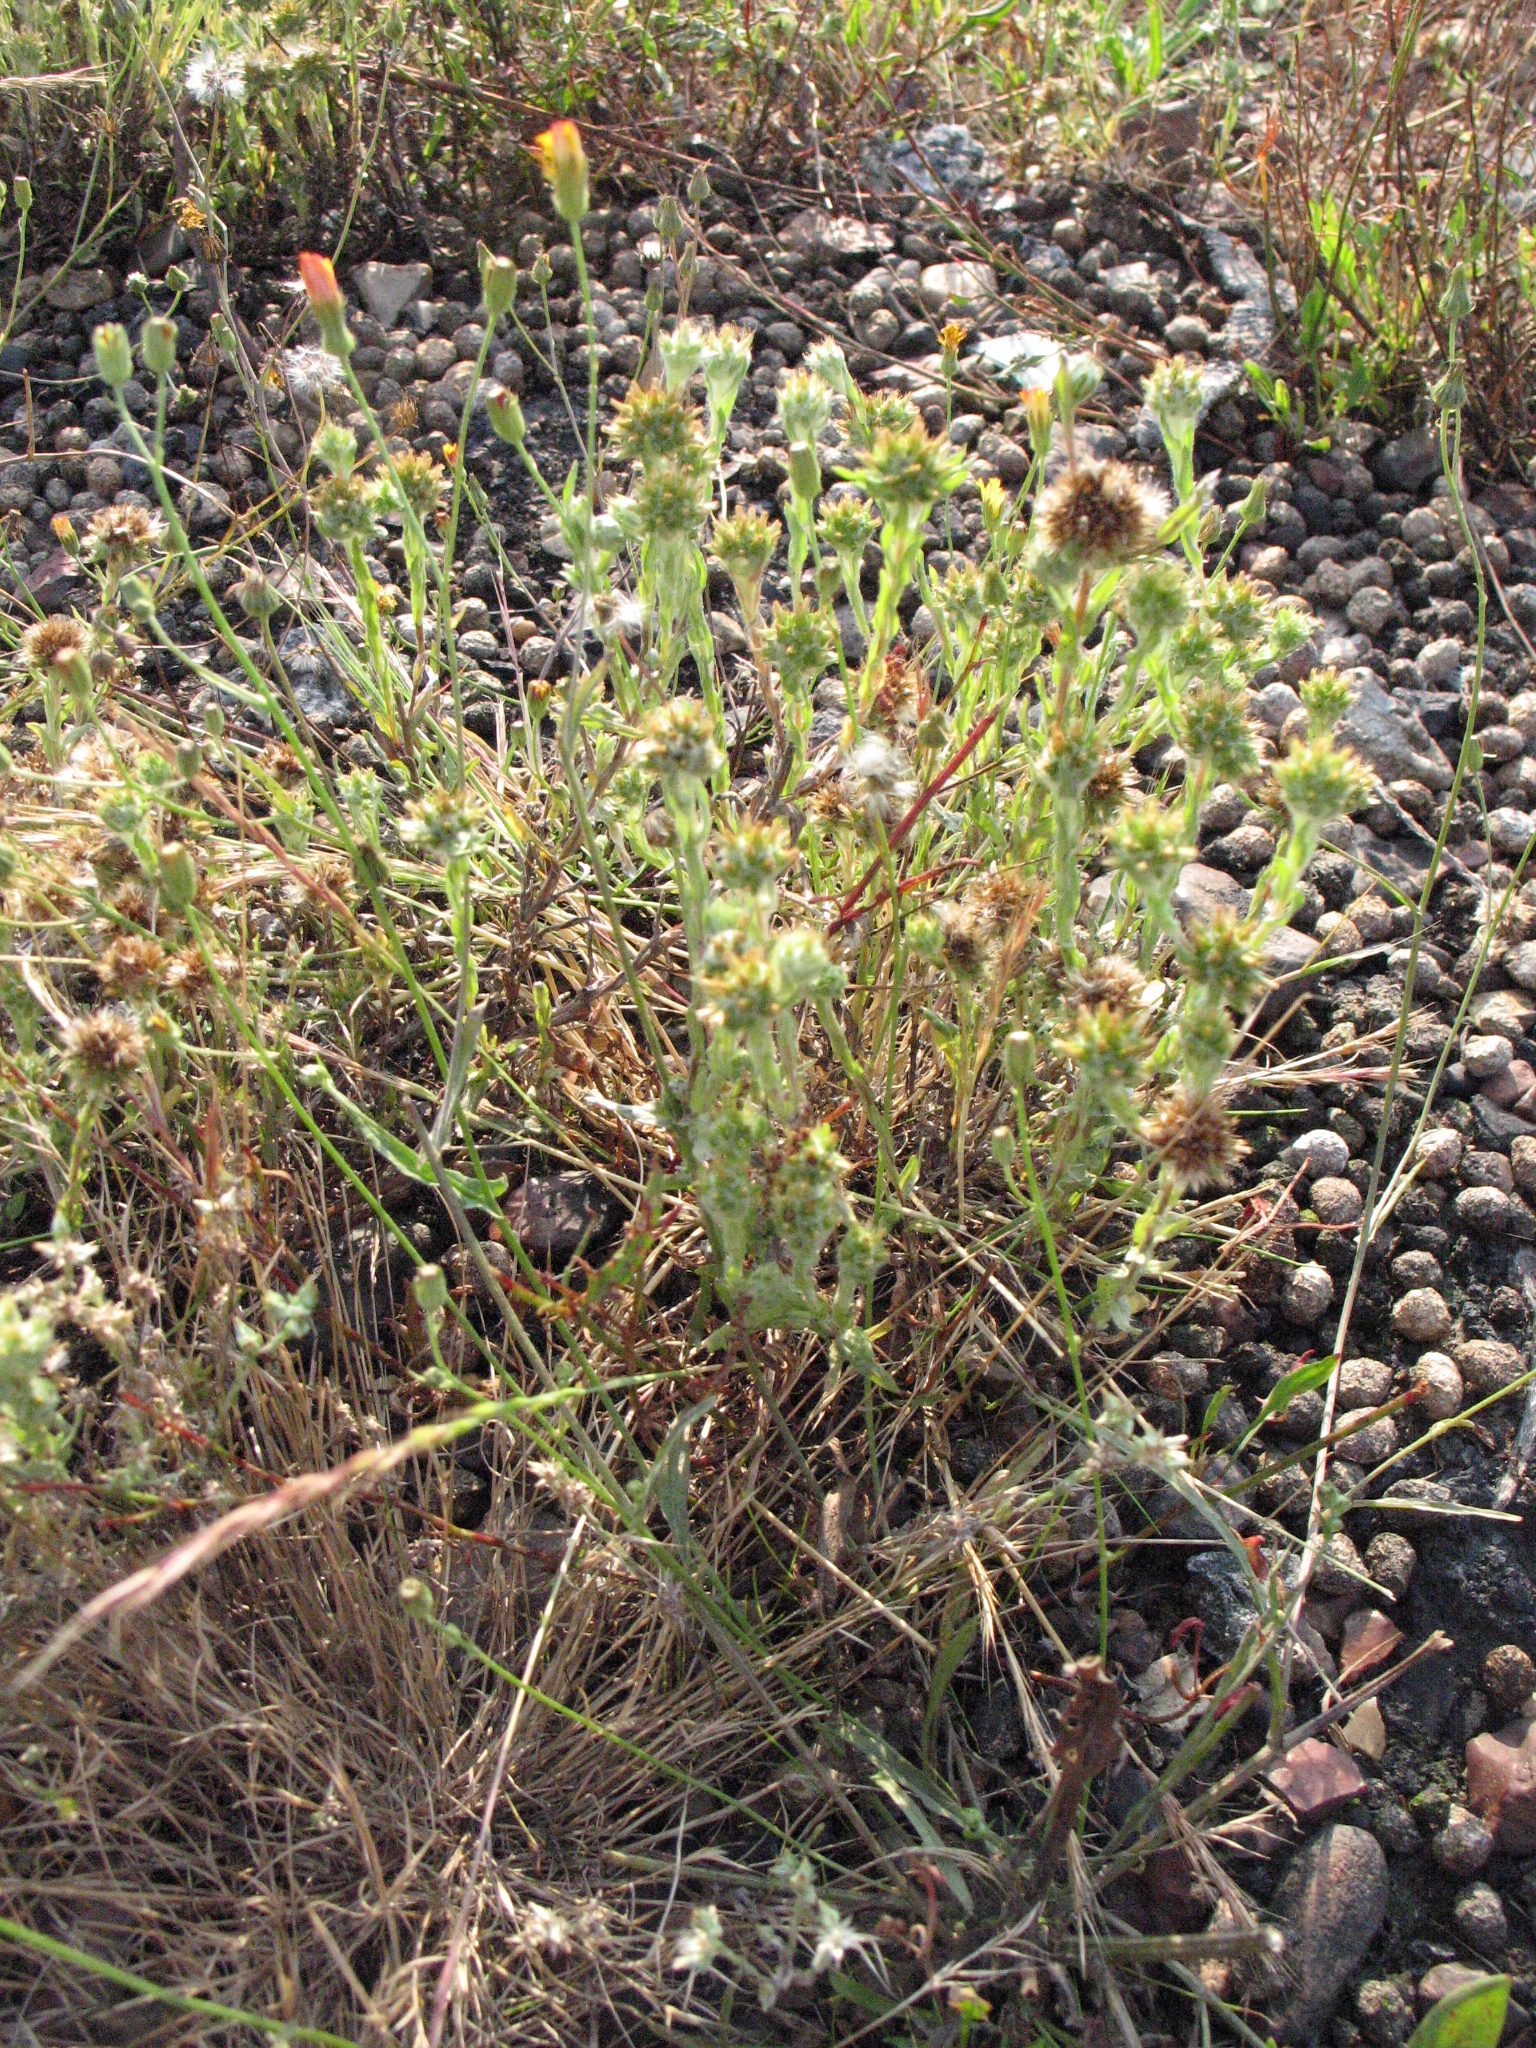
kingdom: Plantae
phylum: Tracheophyta
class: Magnoliopsida
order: Asterales
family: Asteraceae
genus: Filago
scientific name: Filago germanica
